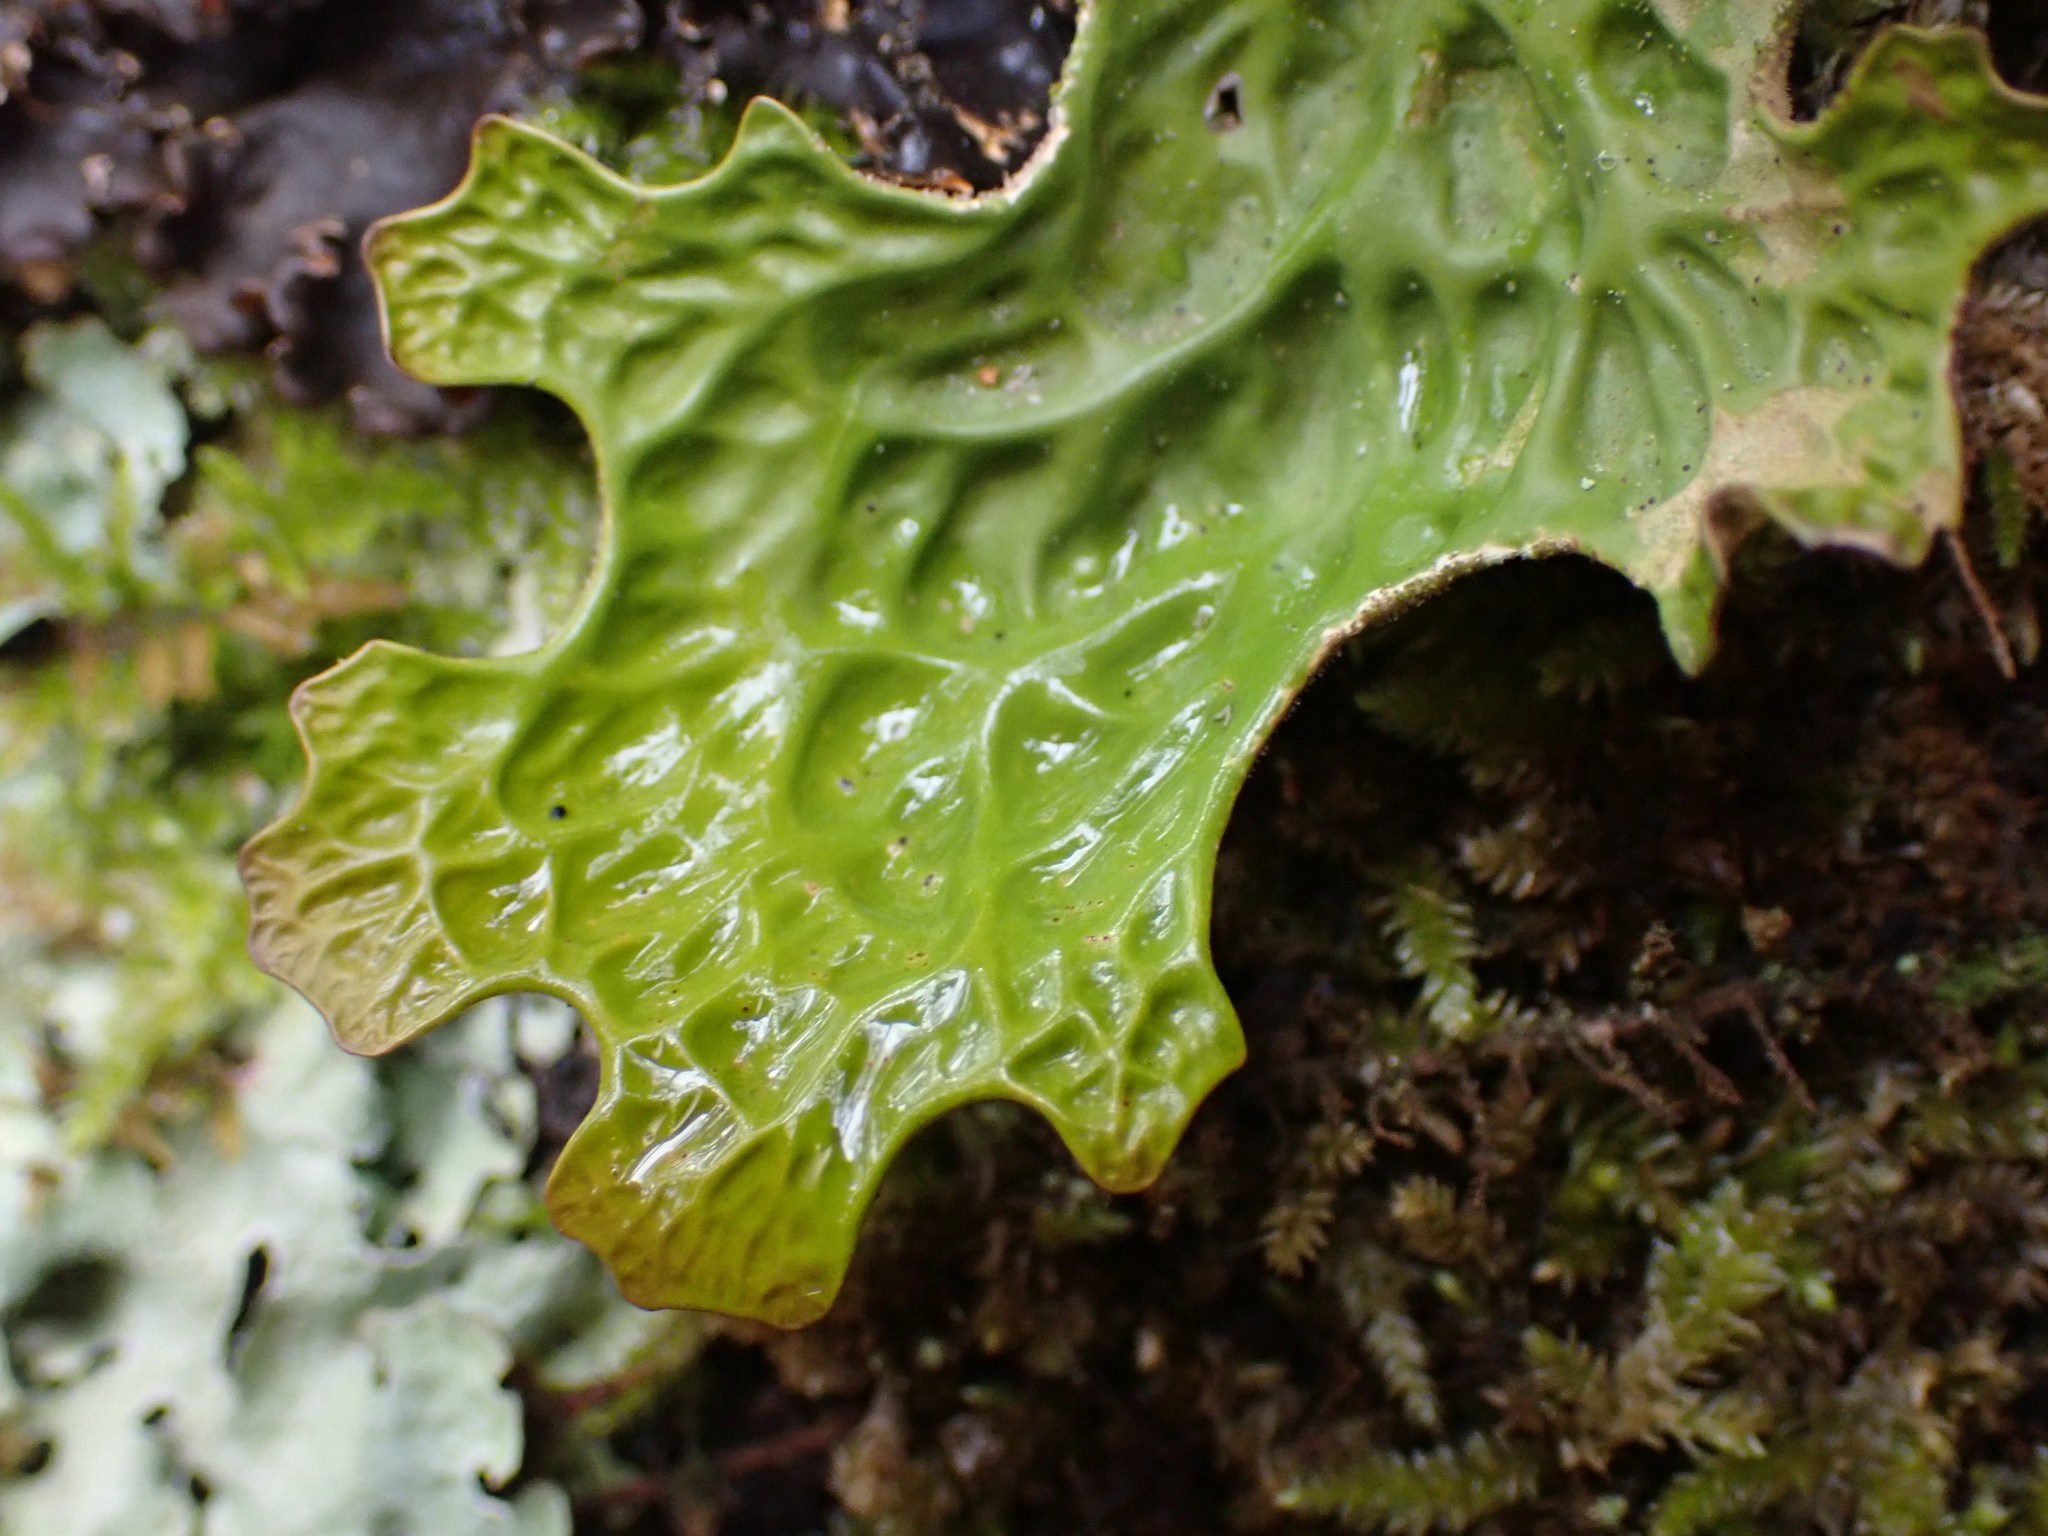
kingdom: Fungi
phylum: Ascomycota
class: Lecanoromycetes
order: Peltigerales
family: Lobariaceae
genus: Lobaria
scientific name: Lobaria pulmonaria
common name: Lungwort
